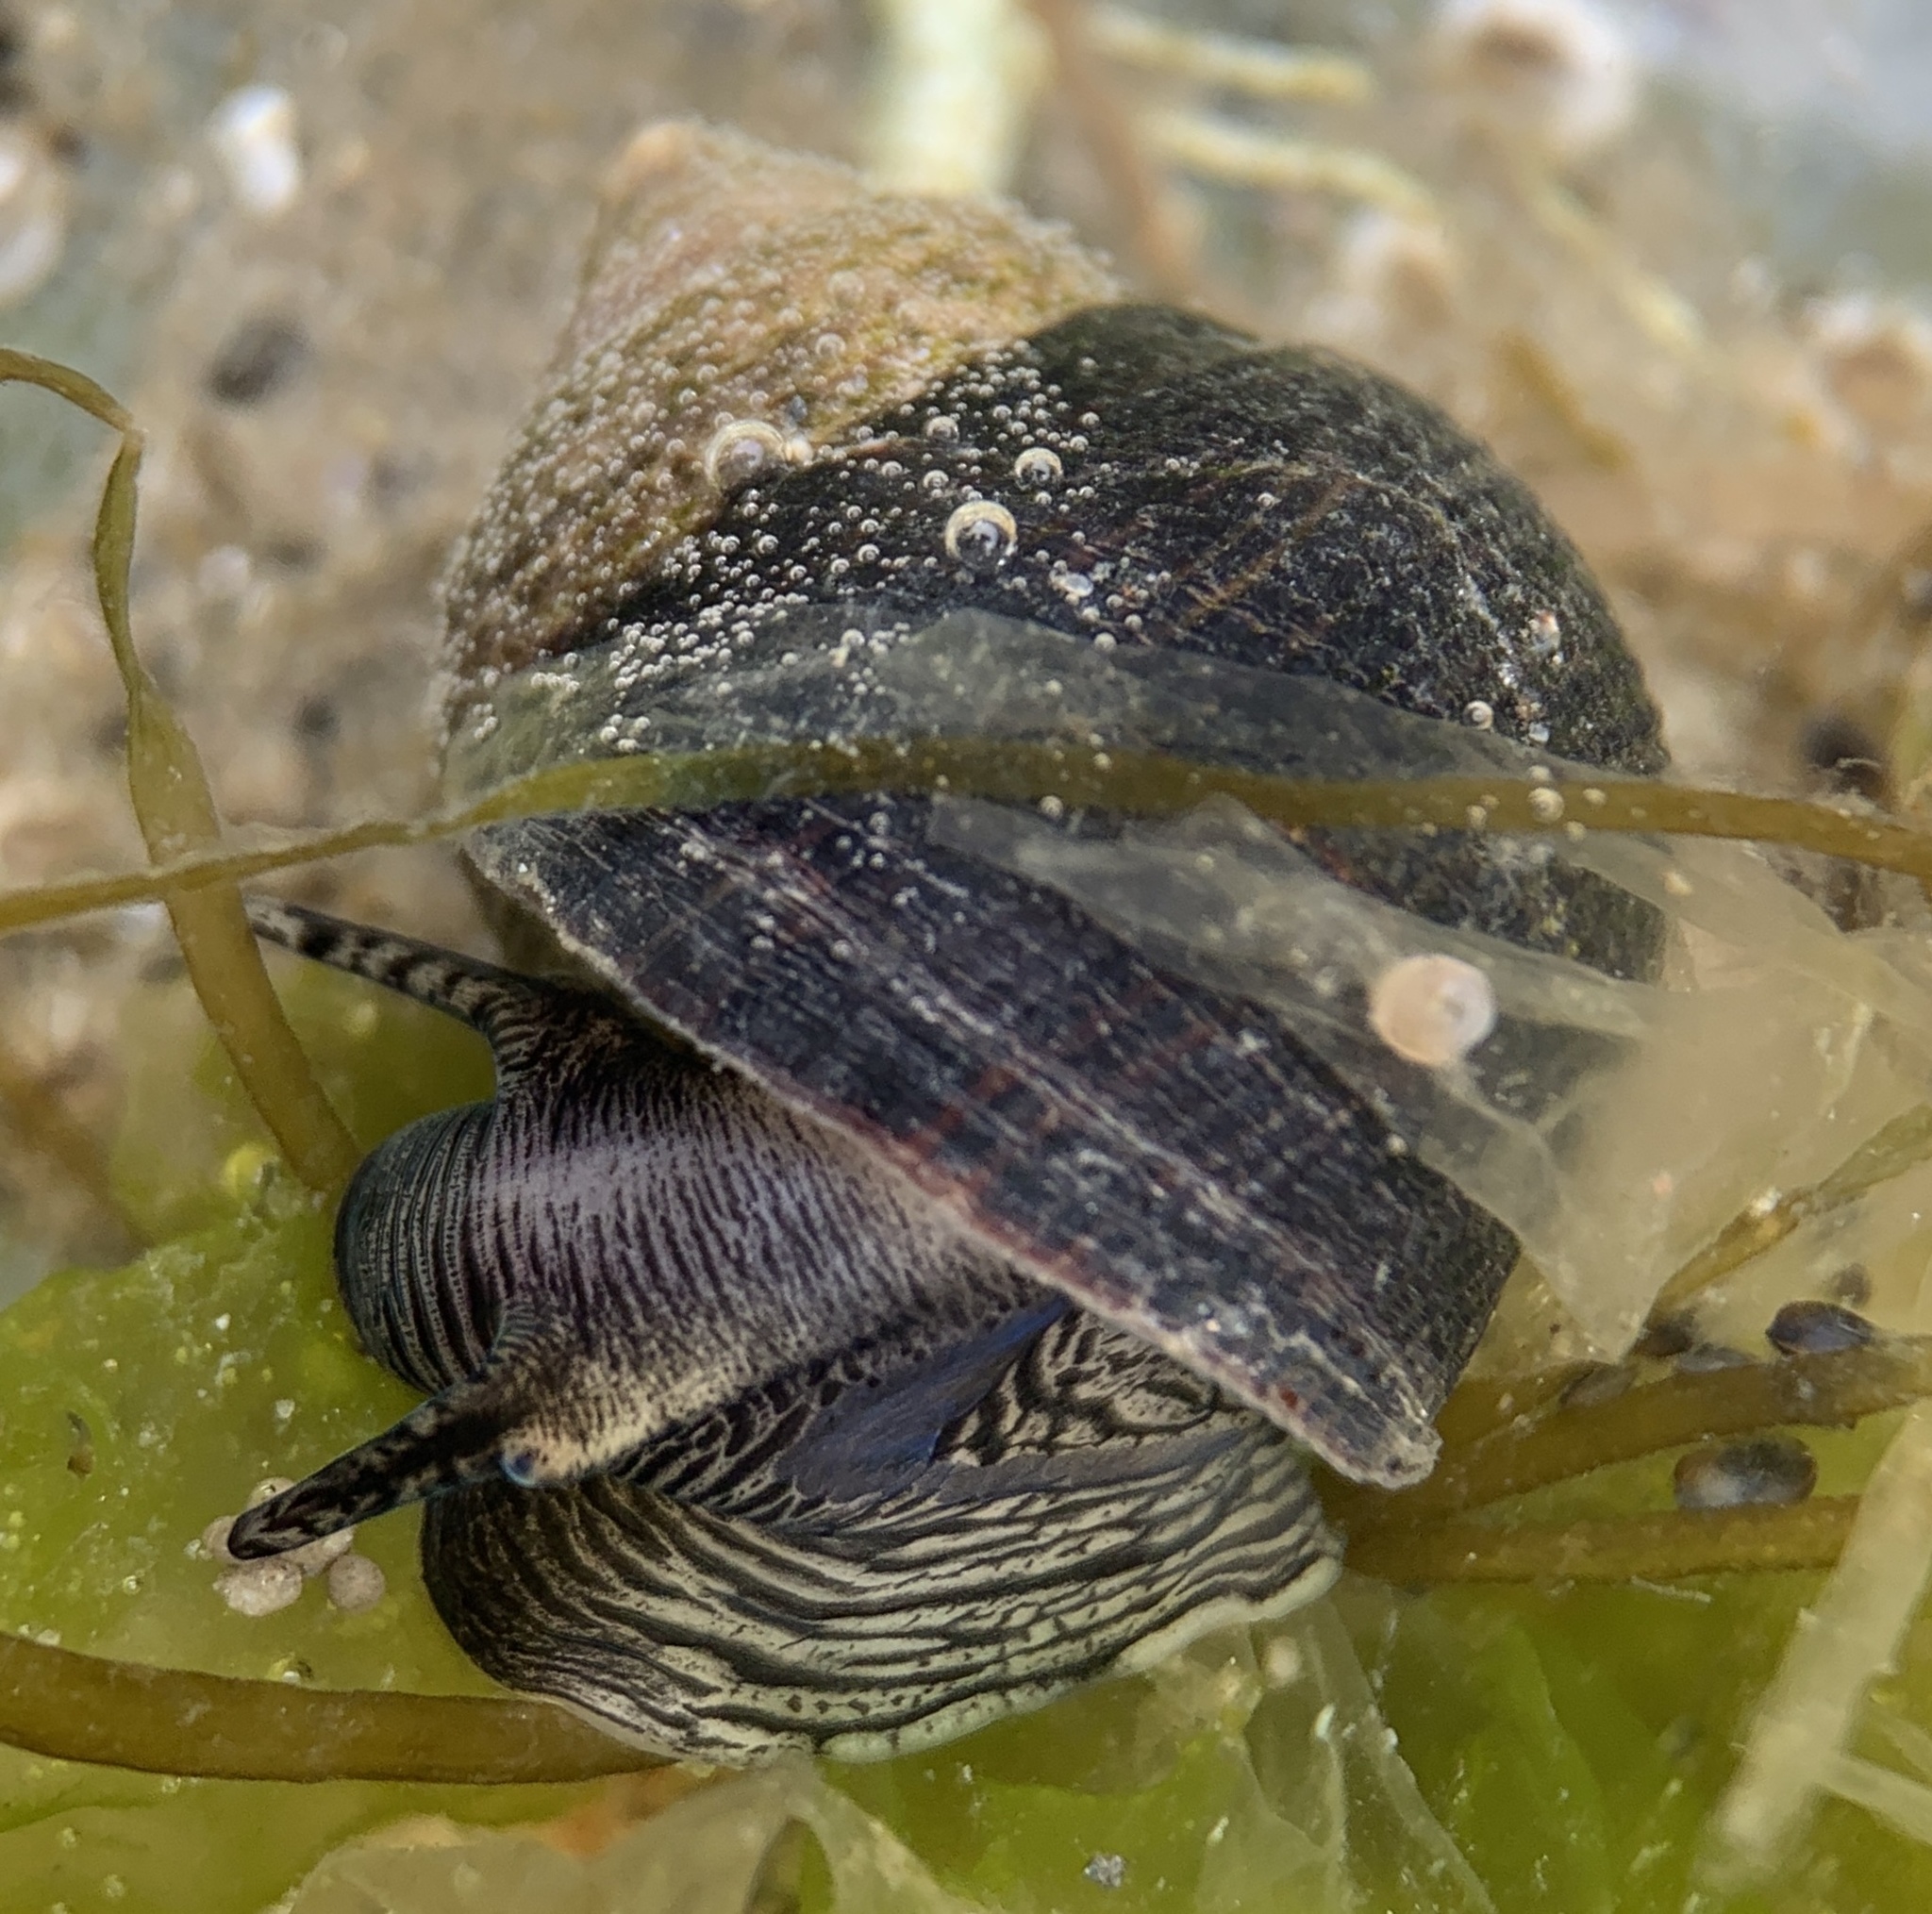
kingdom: Animalia
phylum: Mollusca
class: Gastropoda
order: Littorinimorpha
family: Littorinidae
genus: Littorina
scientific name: Littorina littorea
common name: Common periwinkle
